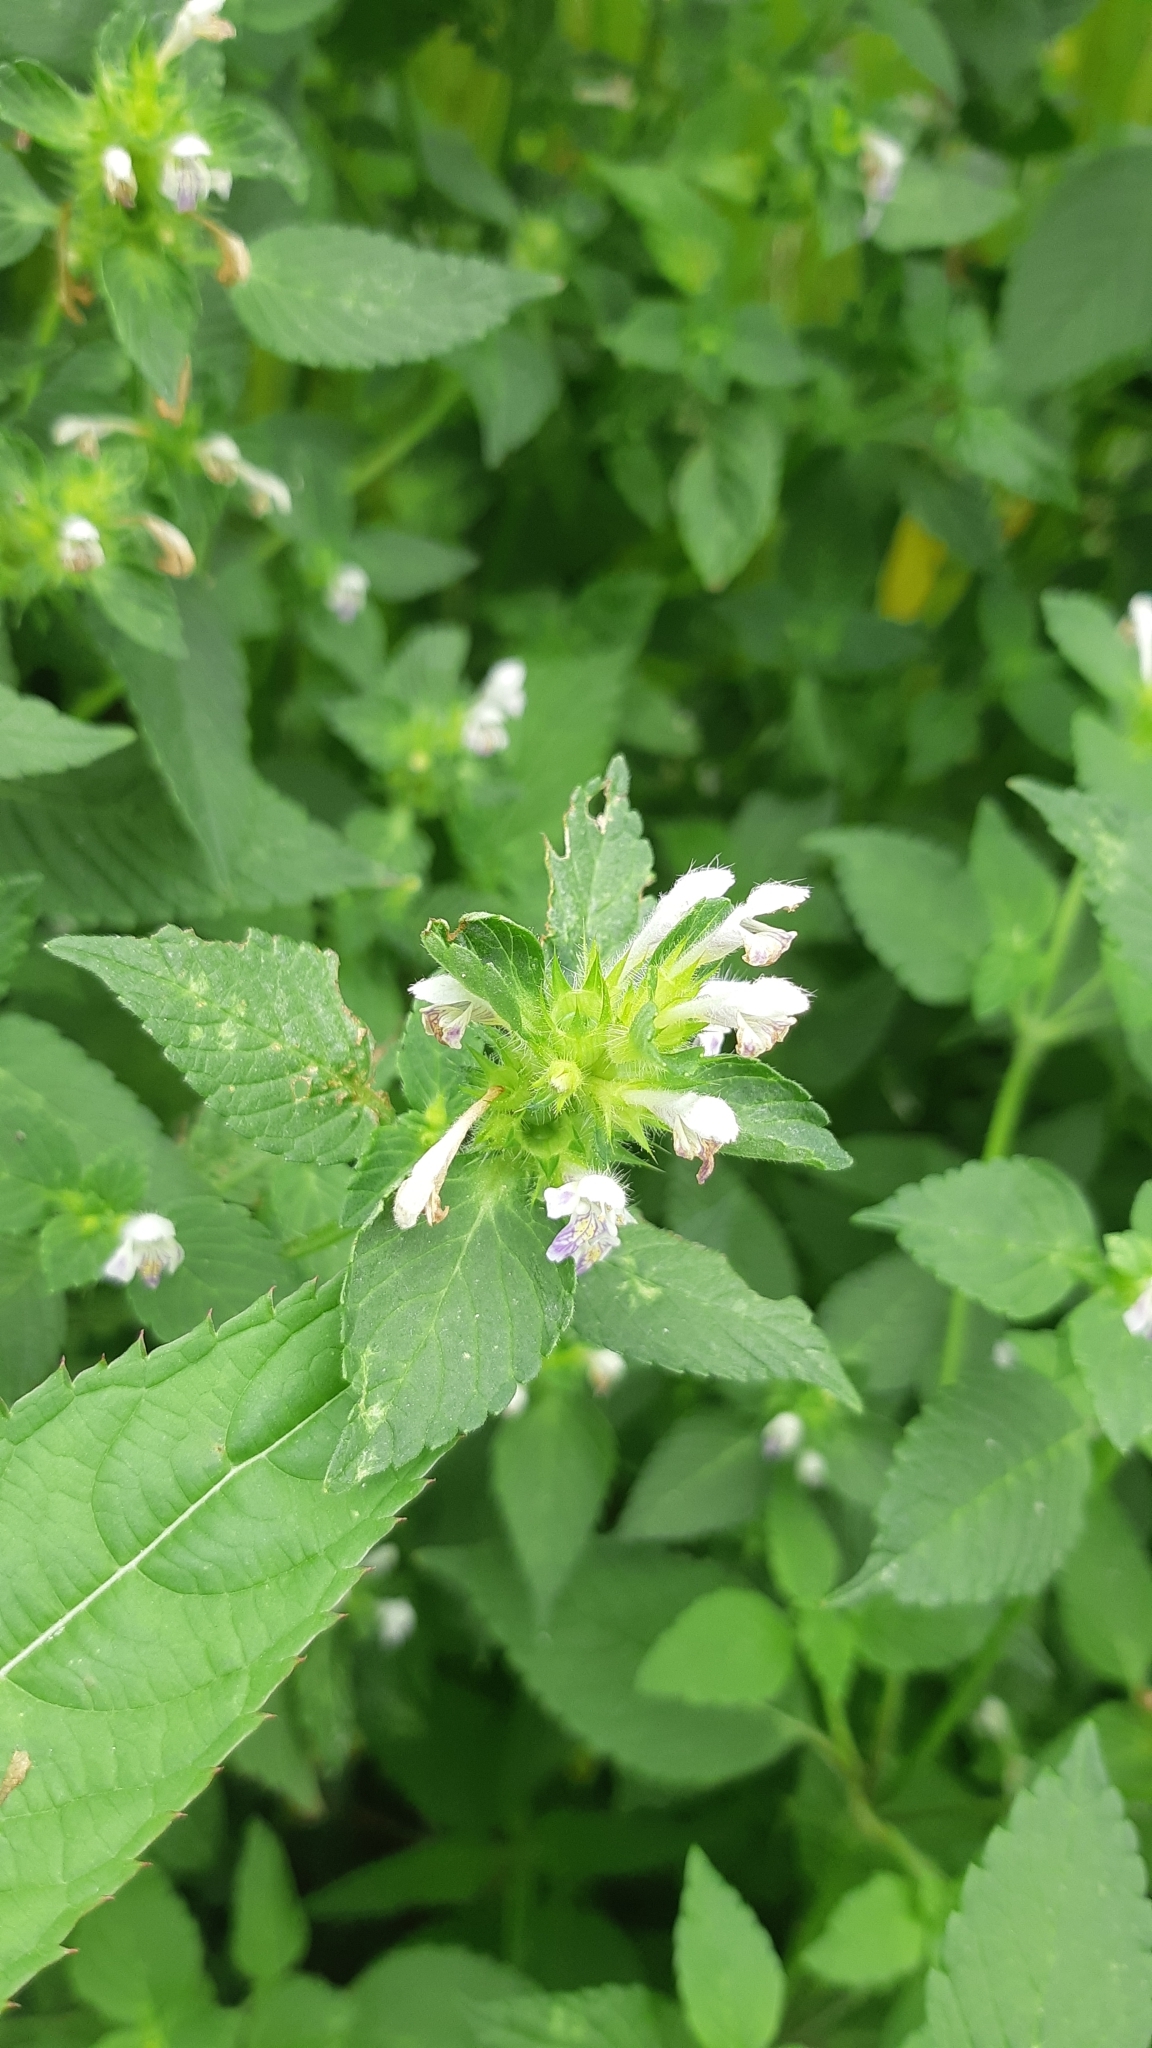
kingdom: Plantae
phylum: Tracheophyta
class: Magnoliopsida
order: Lamiales
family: Lamiaceae
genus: Galeopsis
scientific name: Galeopsis bifida
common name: Bifid hemp-nettle
